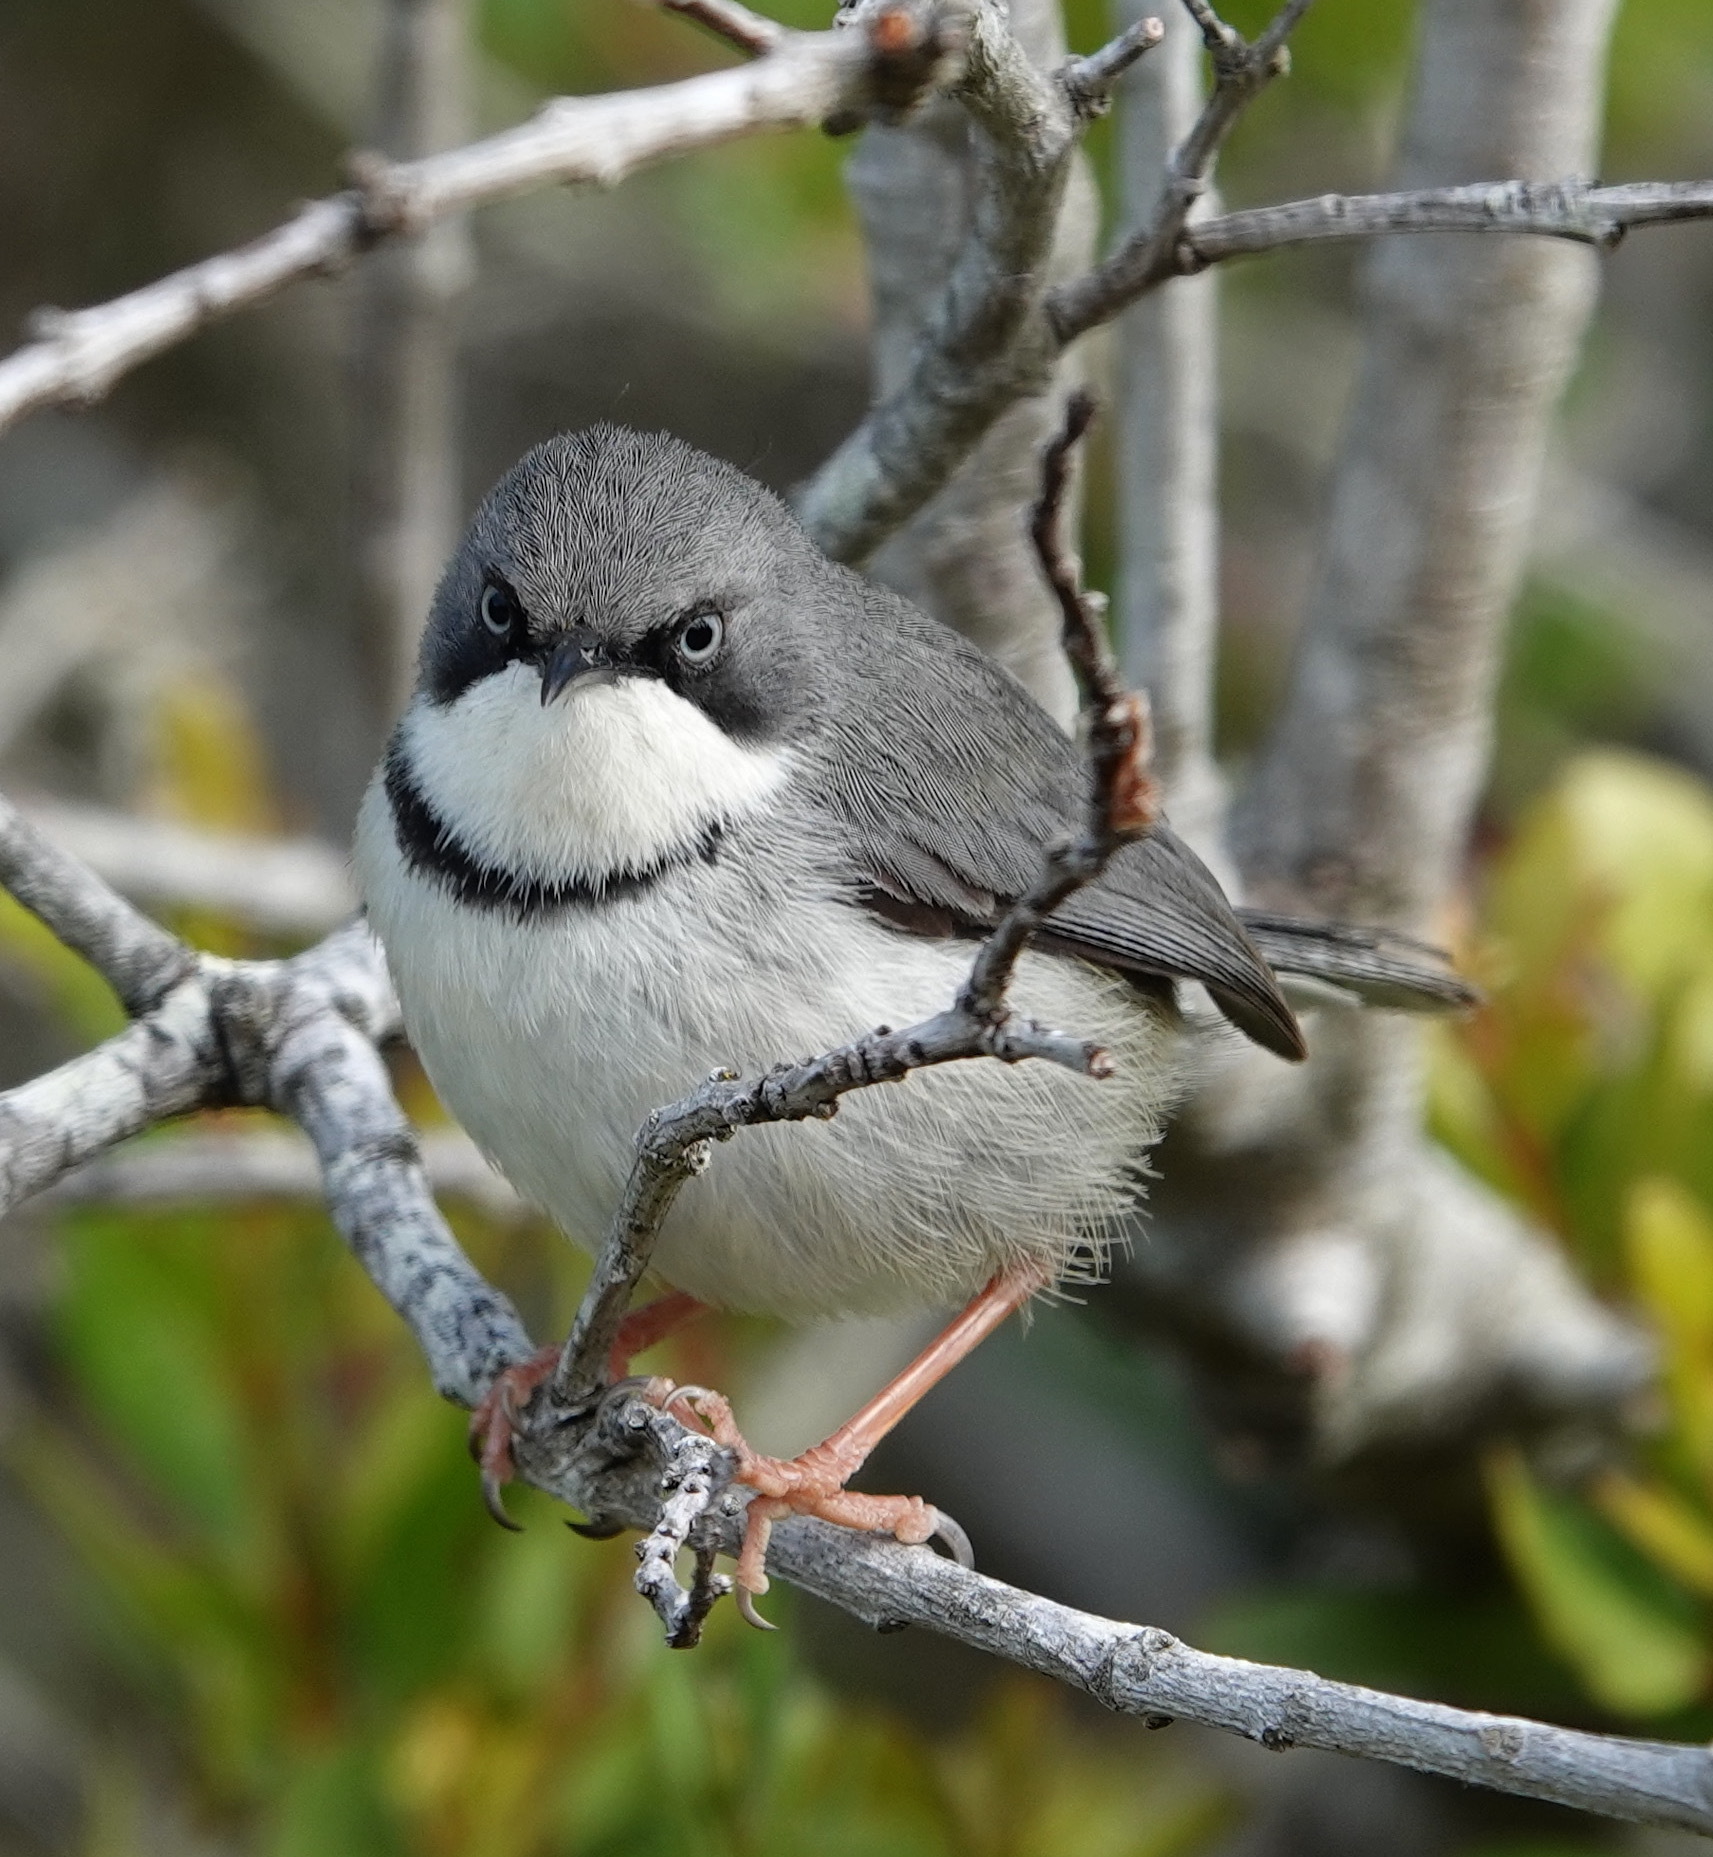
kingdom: Animalia
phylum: Chordata
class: Aves
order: Passeriformes
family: Cisticolidae
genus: Apalis
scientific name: Apalis thoracica
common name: Bar-throated apalis
